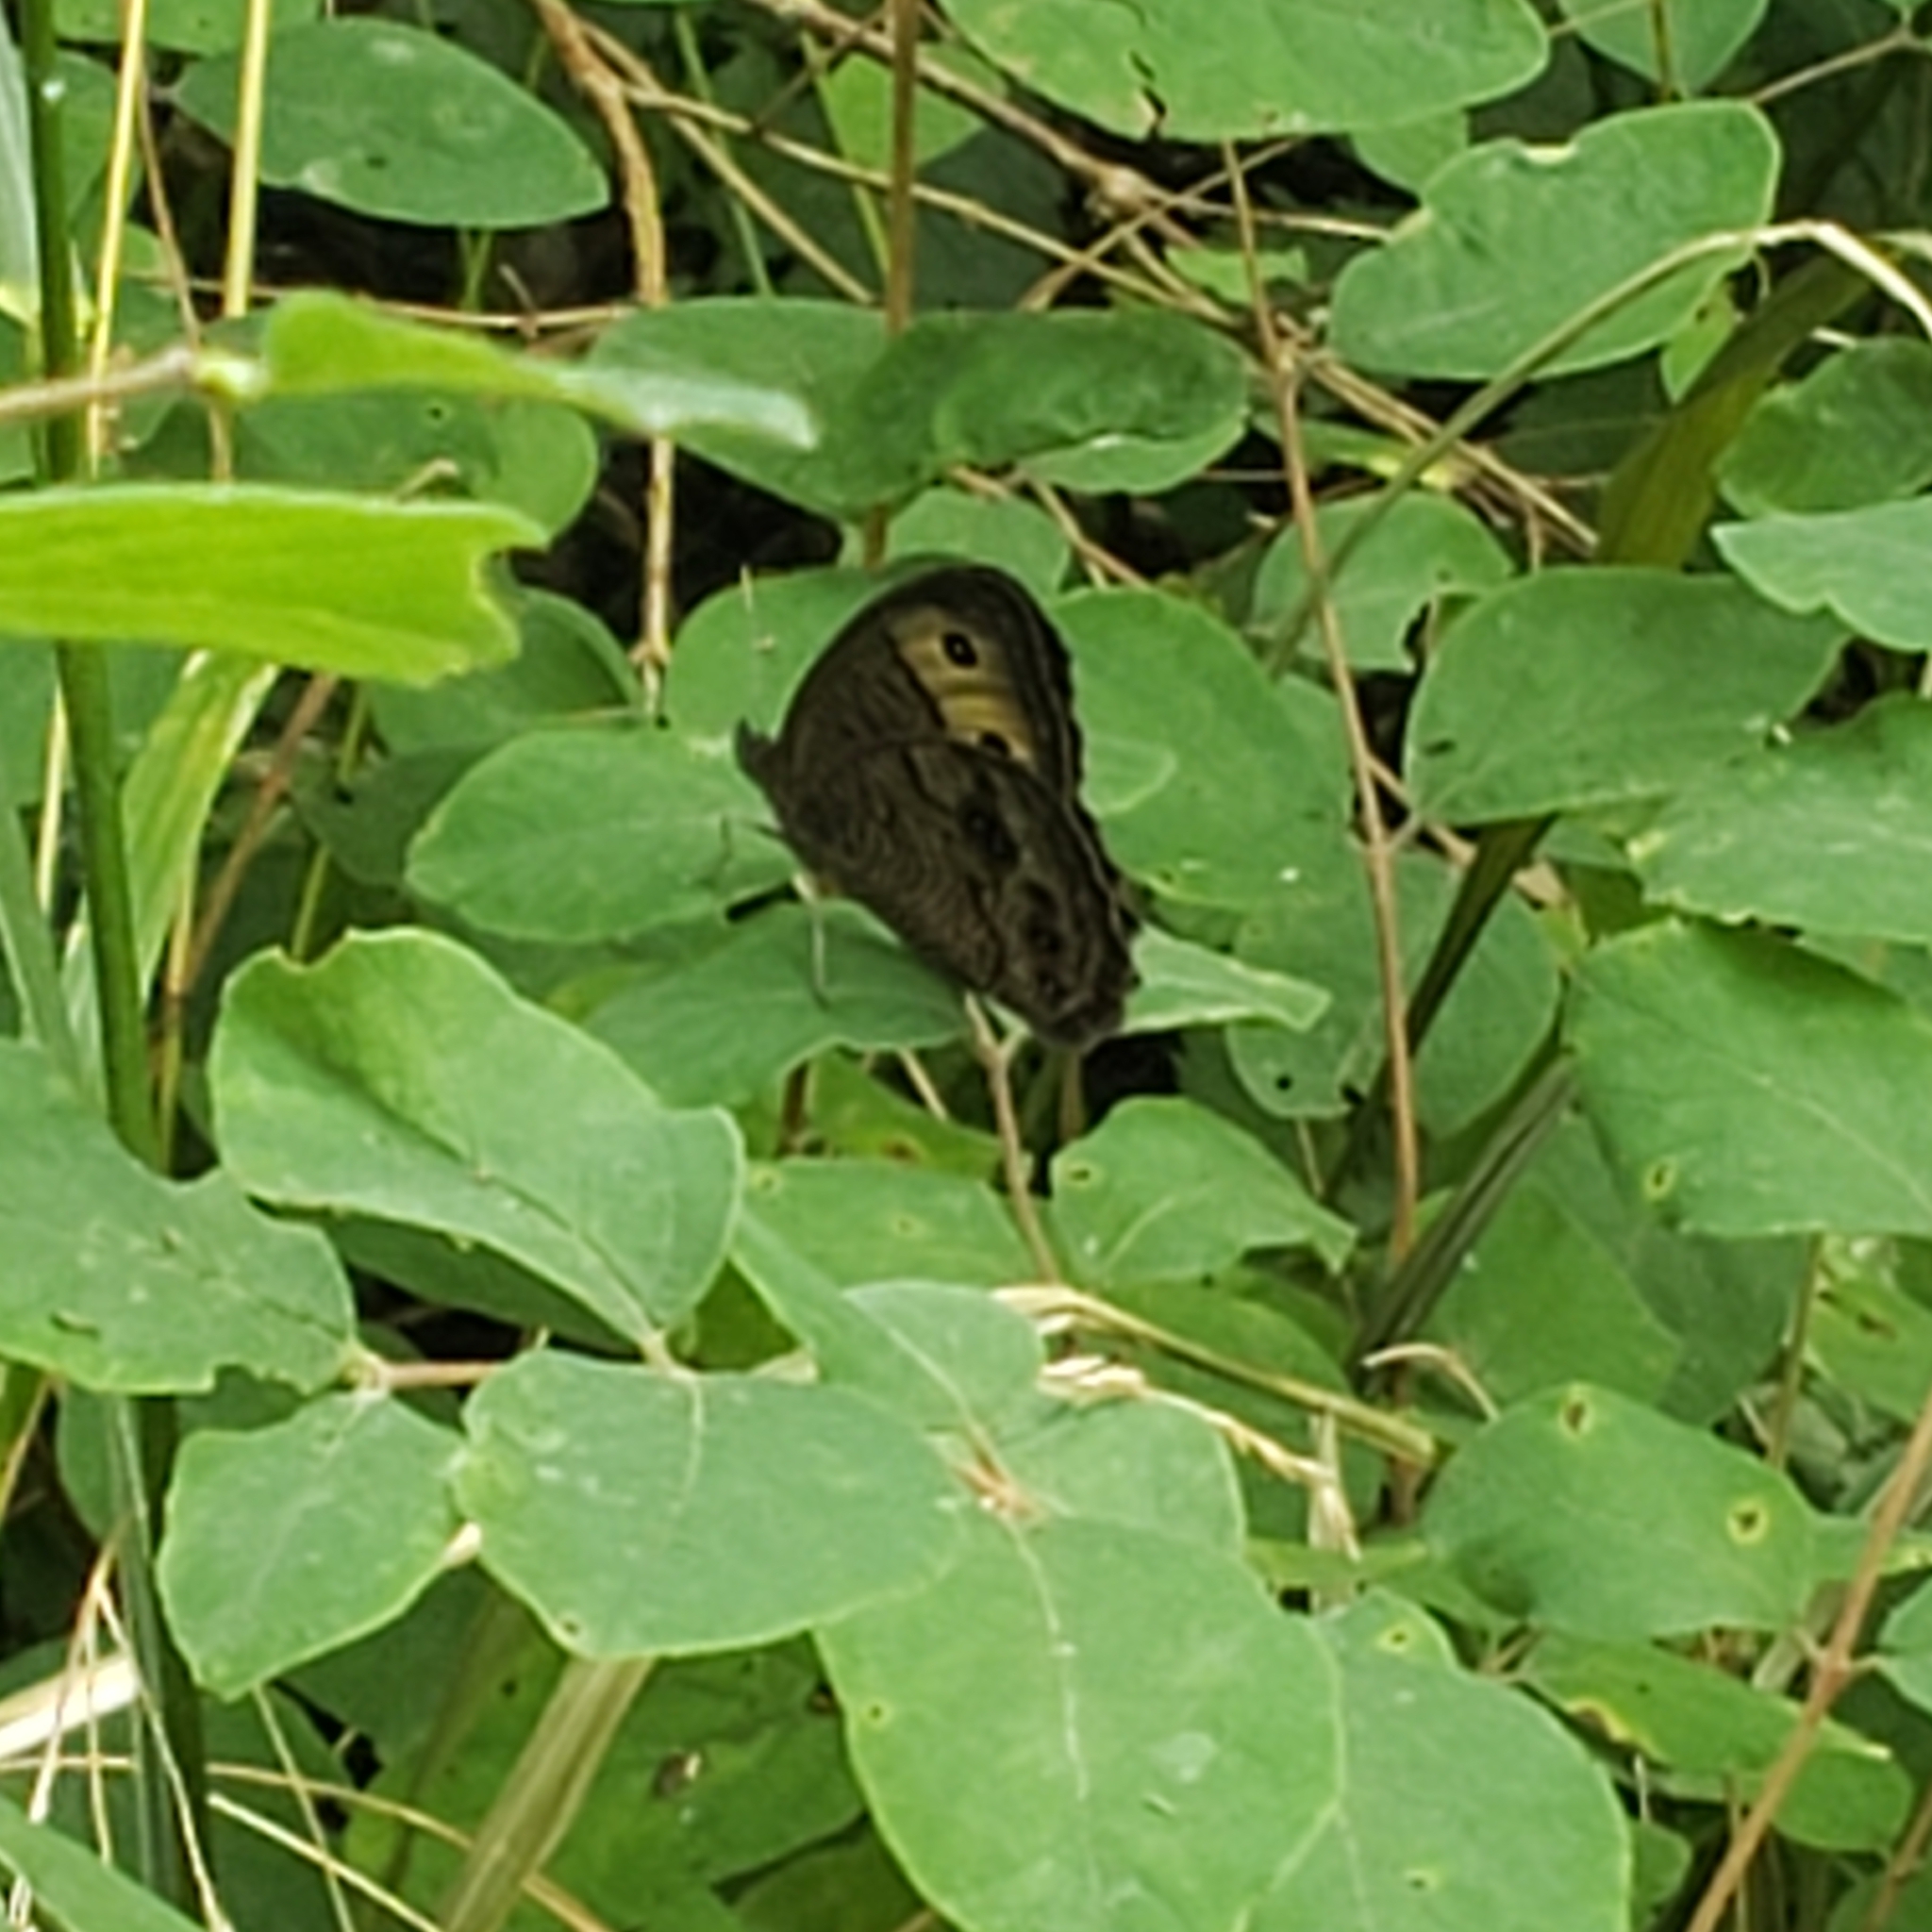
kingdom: Animalia
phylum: Arthropoda
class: Insecta
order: Lepidoptera
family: Nymphalidae
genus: Cercyonis
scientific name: Cercyonis pegala
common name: Common wood-nymph
